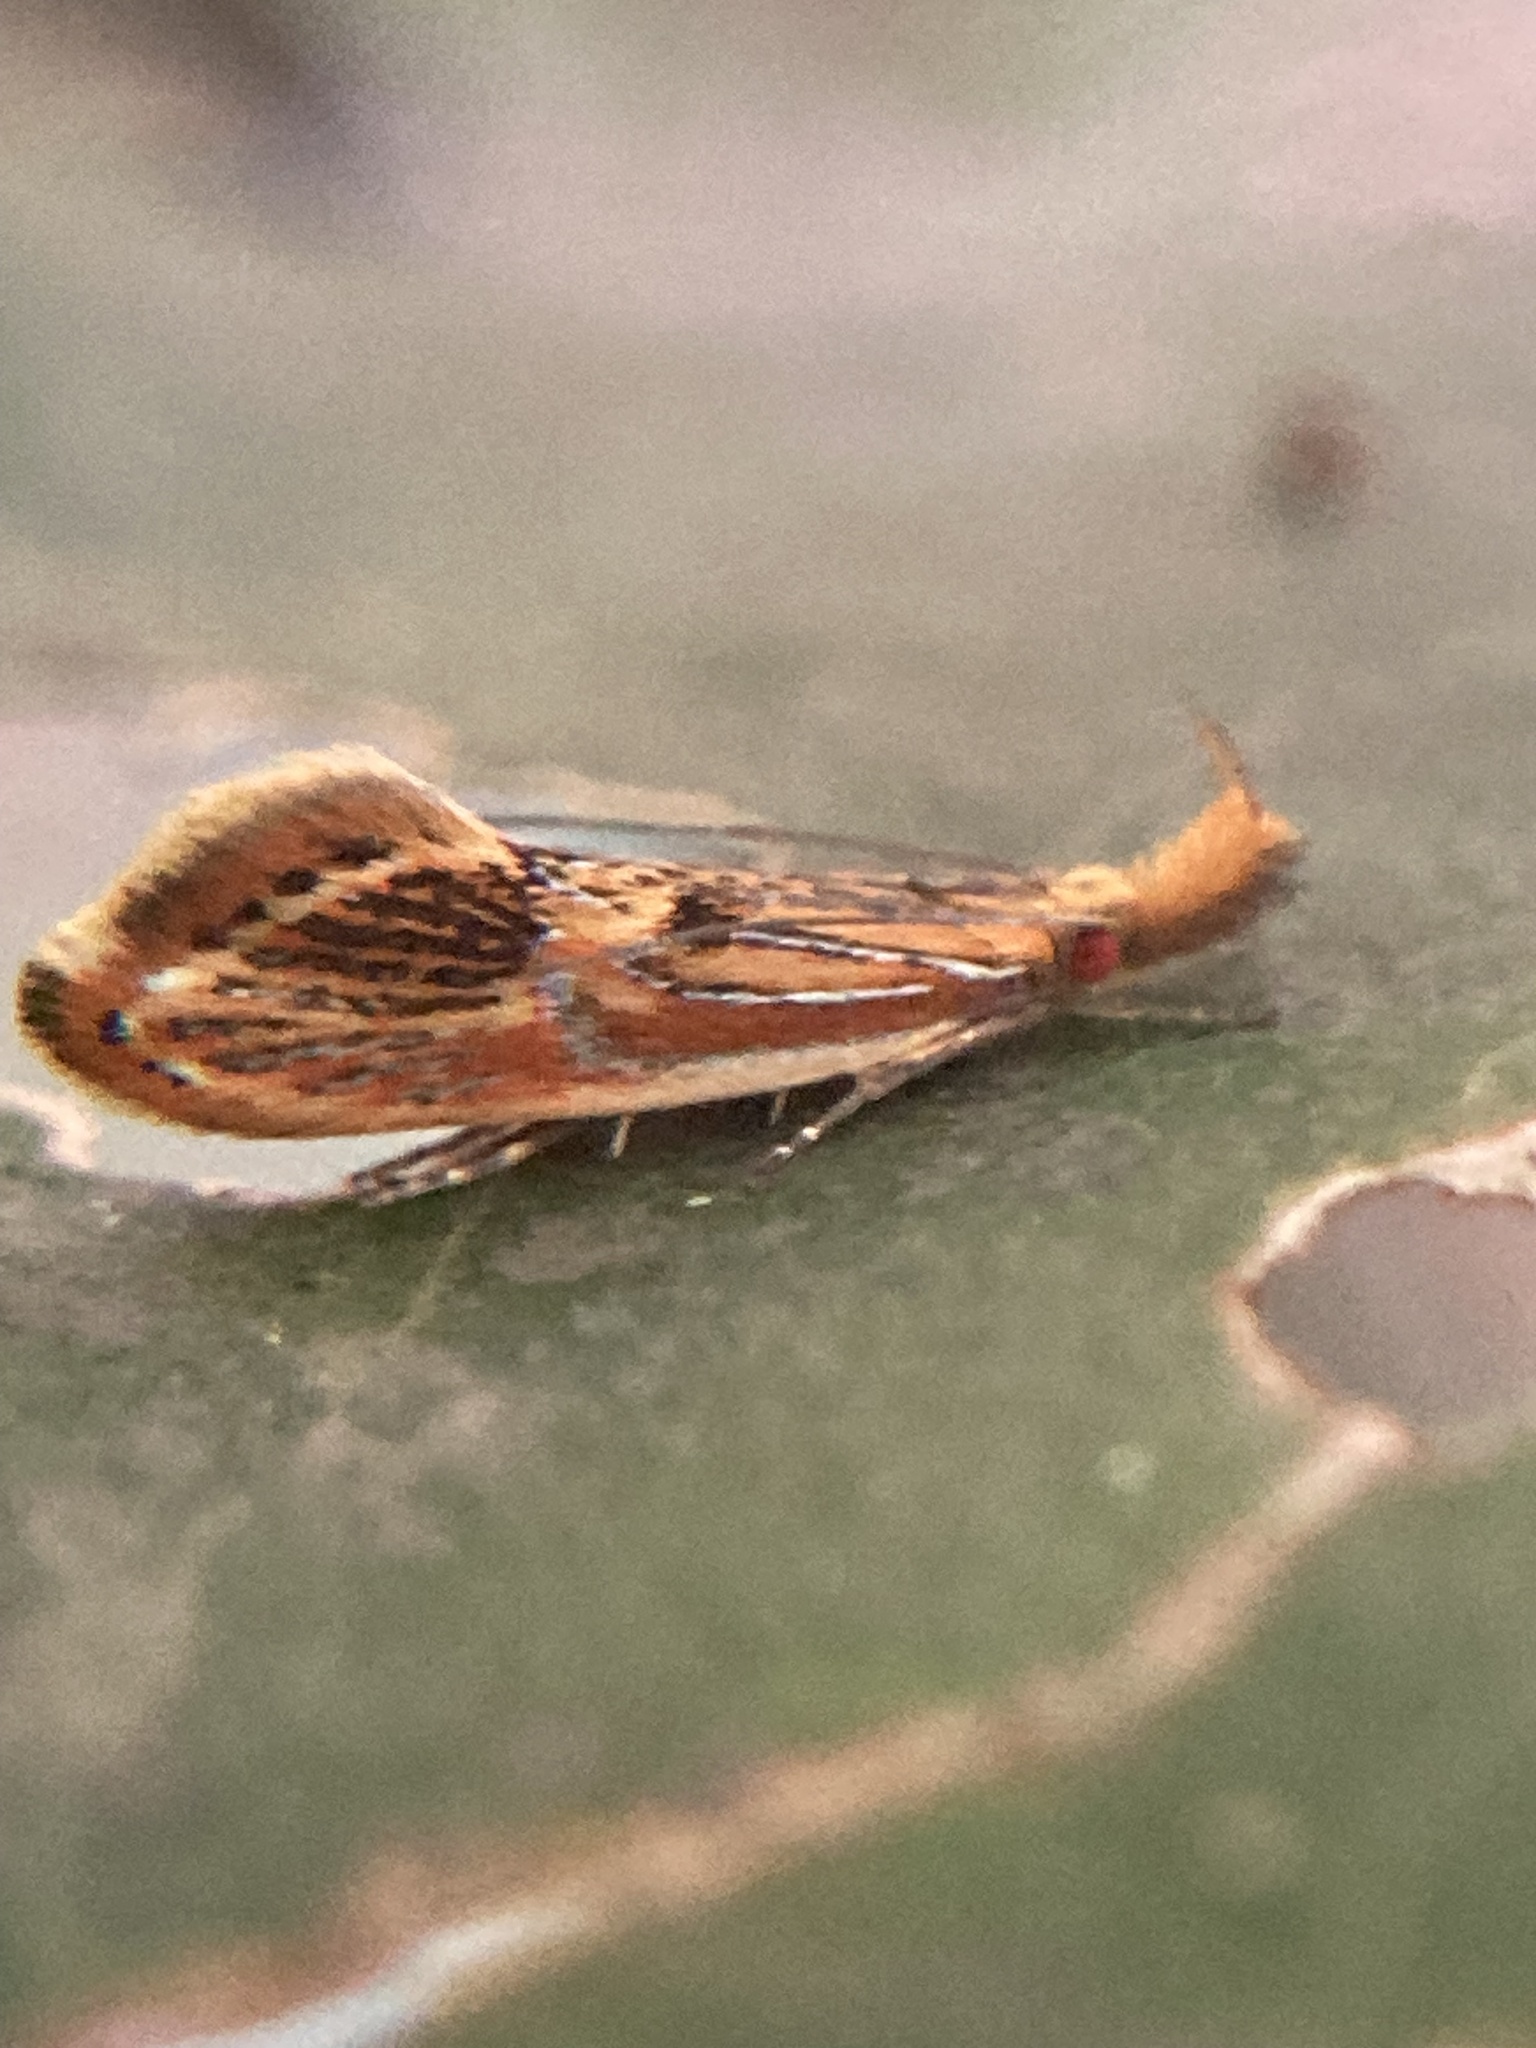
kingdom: Animalia
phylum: Arthropoda
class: Insecta
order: Lepidoptera
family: Oecophoridae
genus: Leprocosma
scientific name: Leprocosma hoplophanes
